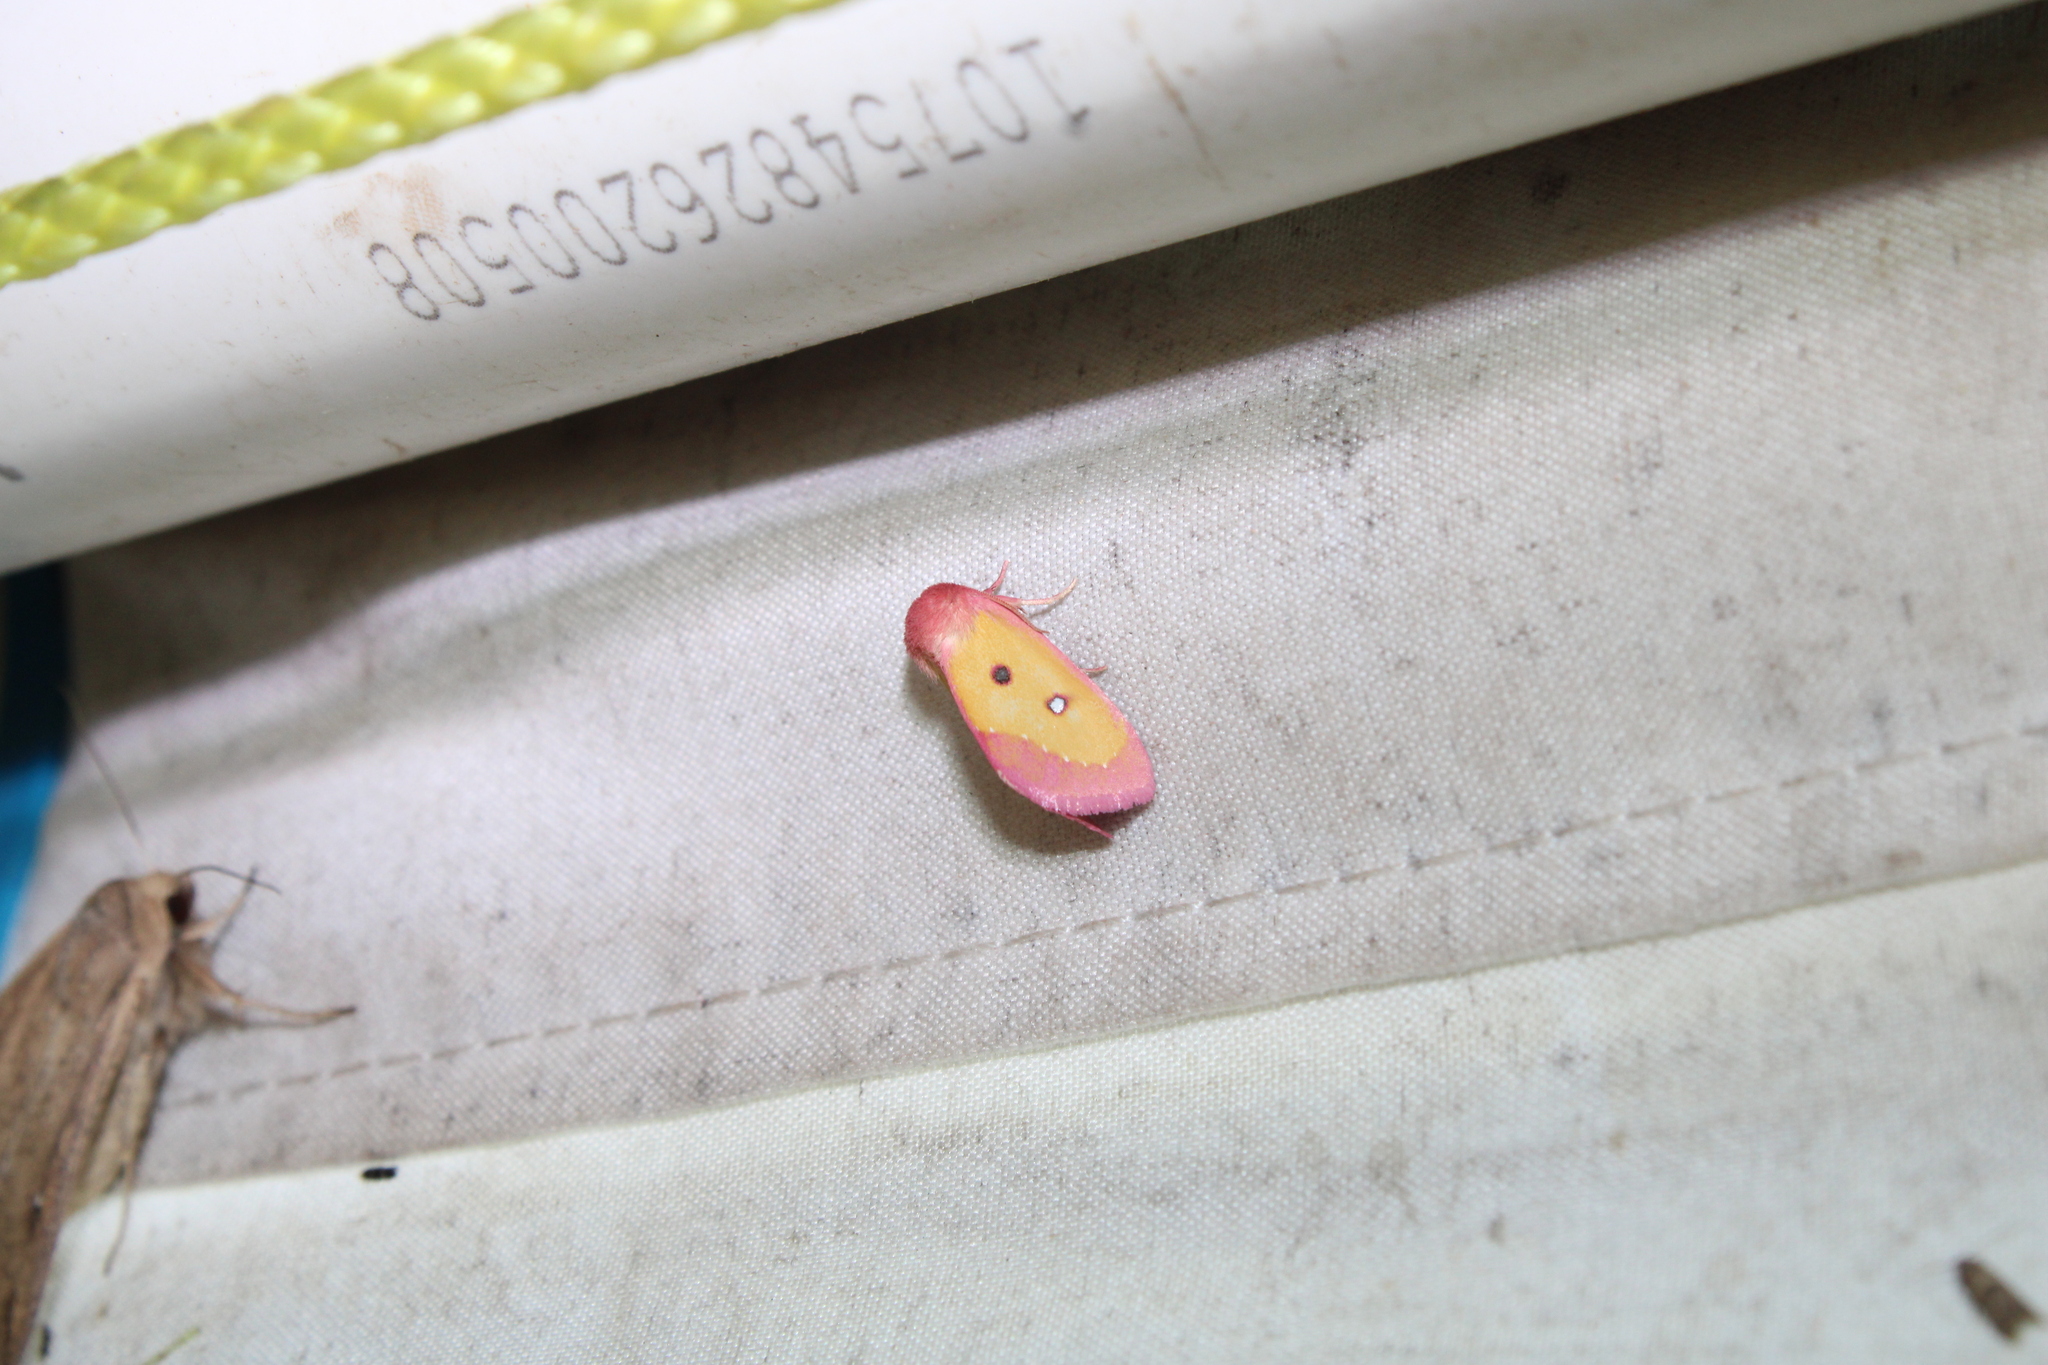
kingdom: Animalia
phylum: Arthropoda
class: Insecta
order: Lepidoptera
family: Noctuidae
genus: Derrima
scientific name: Derrima stellata
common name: Pink star moth
